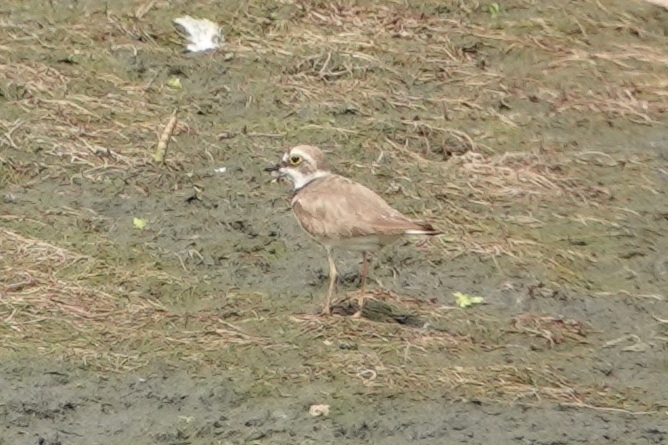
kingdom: Animalia
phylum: Chordata
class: Aves
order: Charadriiformes
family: Charadriidae
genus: Charadrius
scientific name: Charadrius dubius
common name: Little ringed plover
